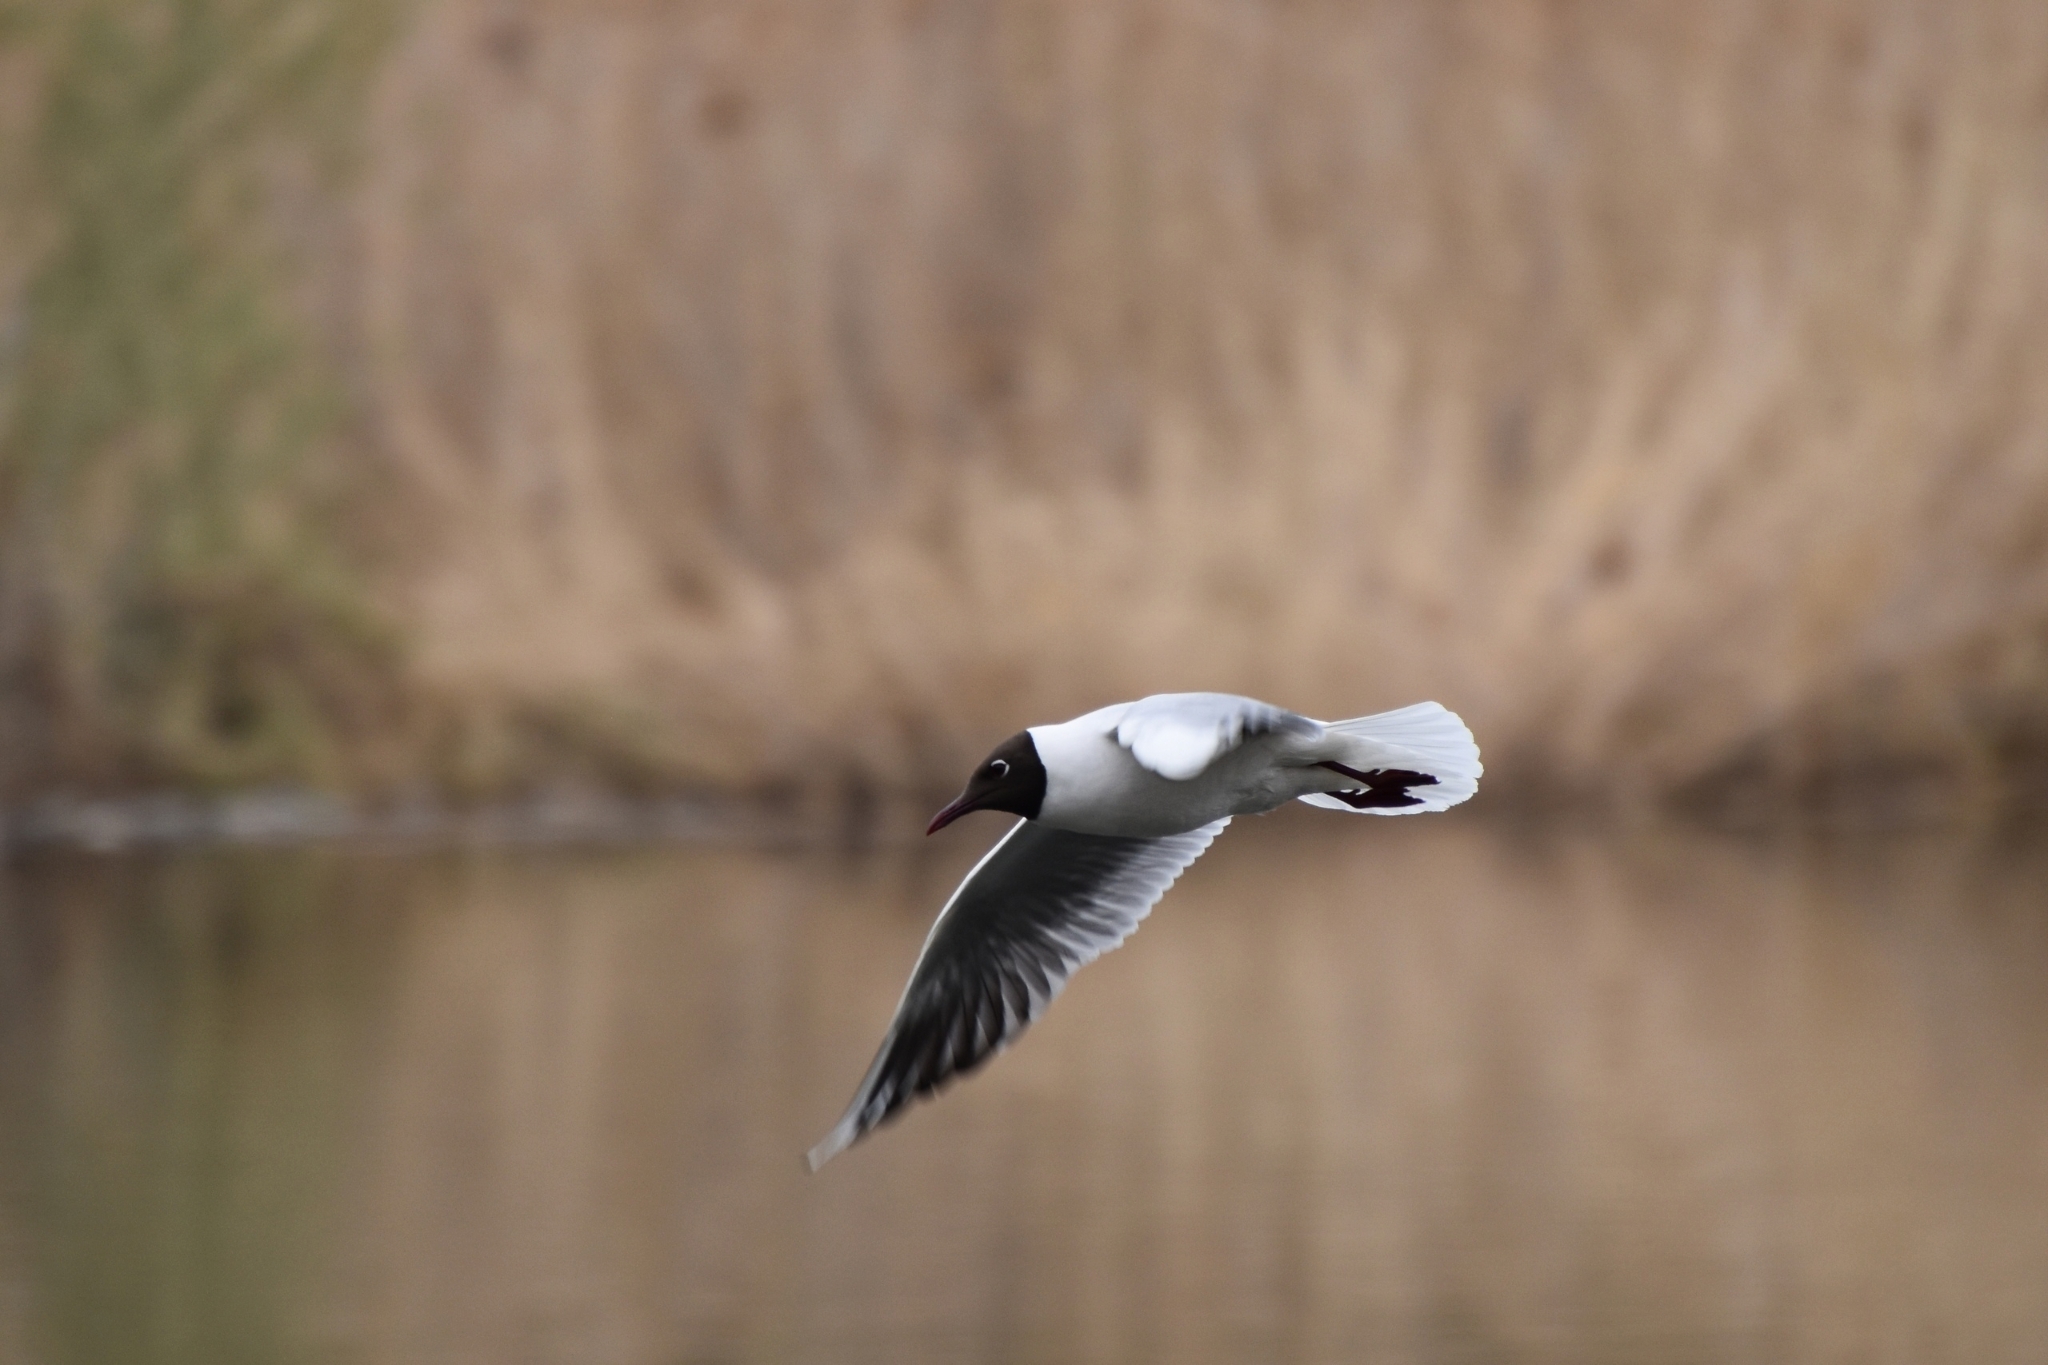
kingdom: Animalia
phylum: Chordata
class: Aves
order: Charadriiformes
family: Laridae
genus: Chroicocephalus
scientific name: Chroicocephalus ridibundus
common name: Black-headed gull
